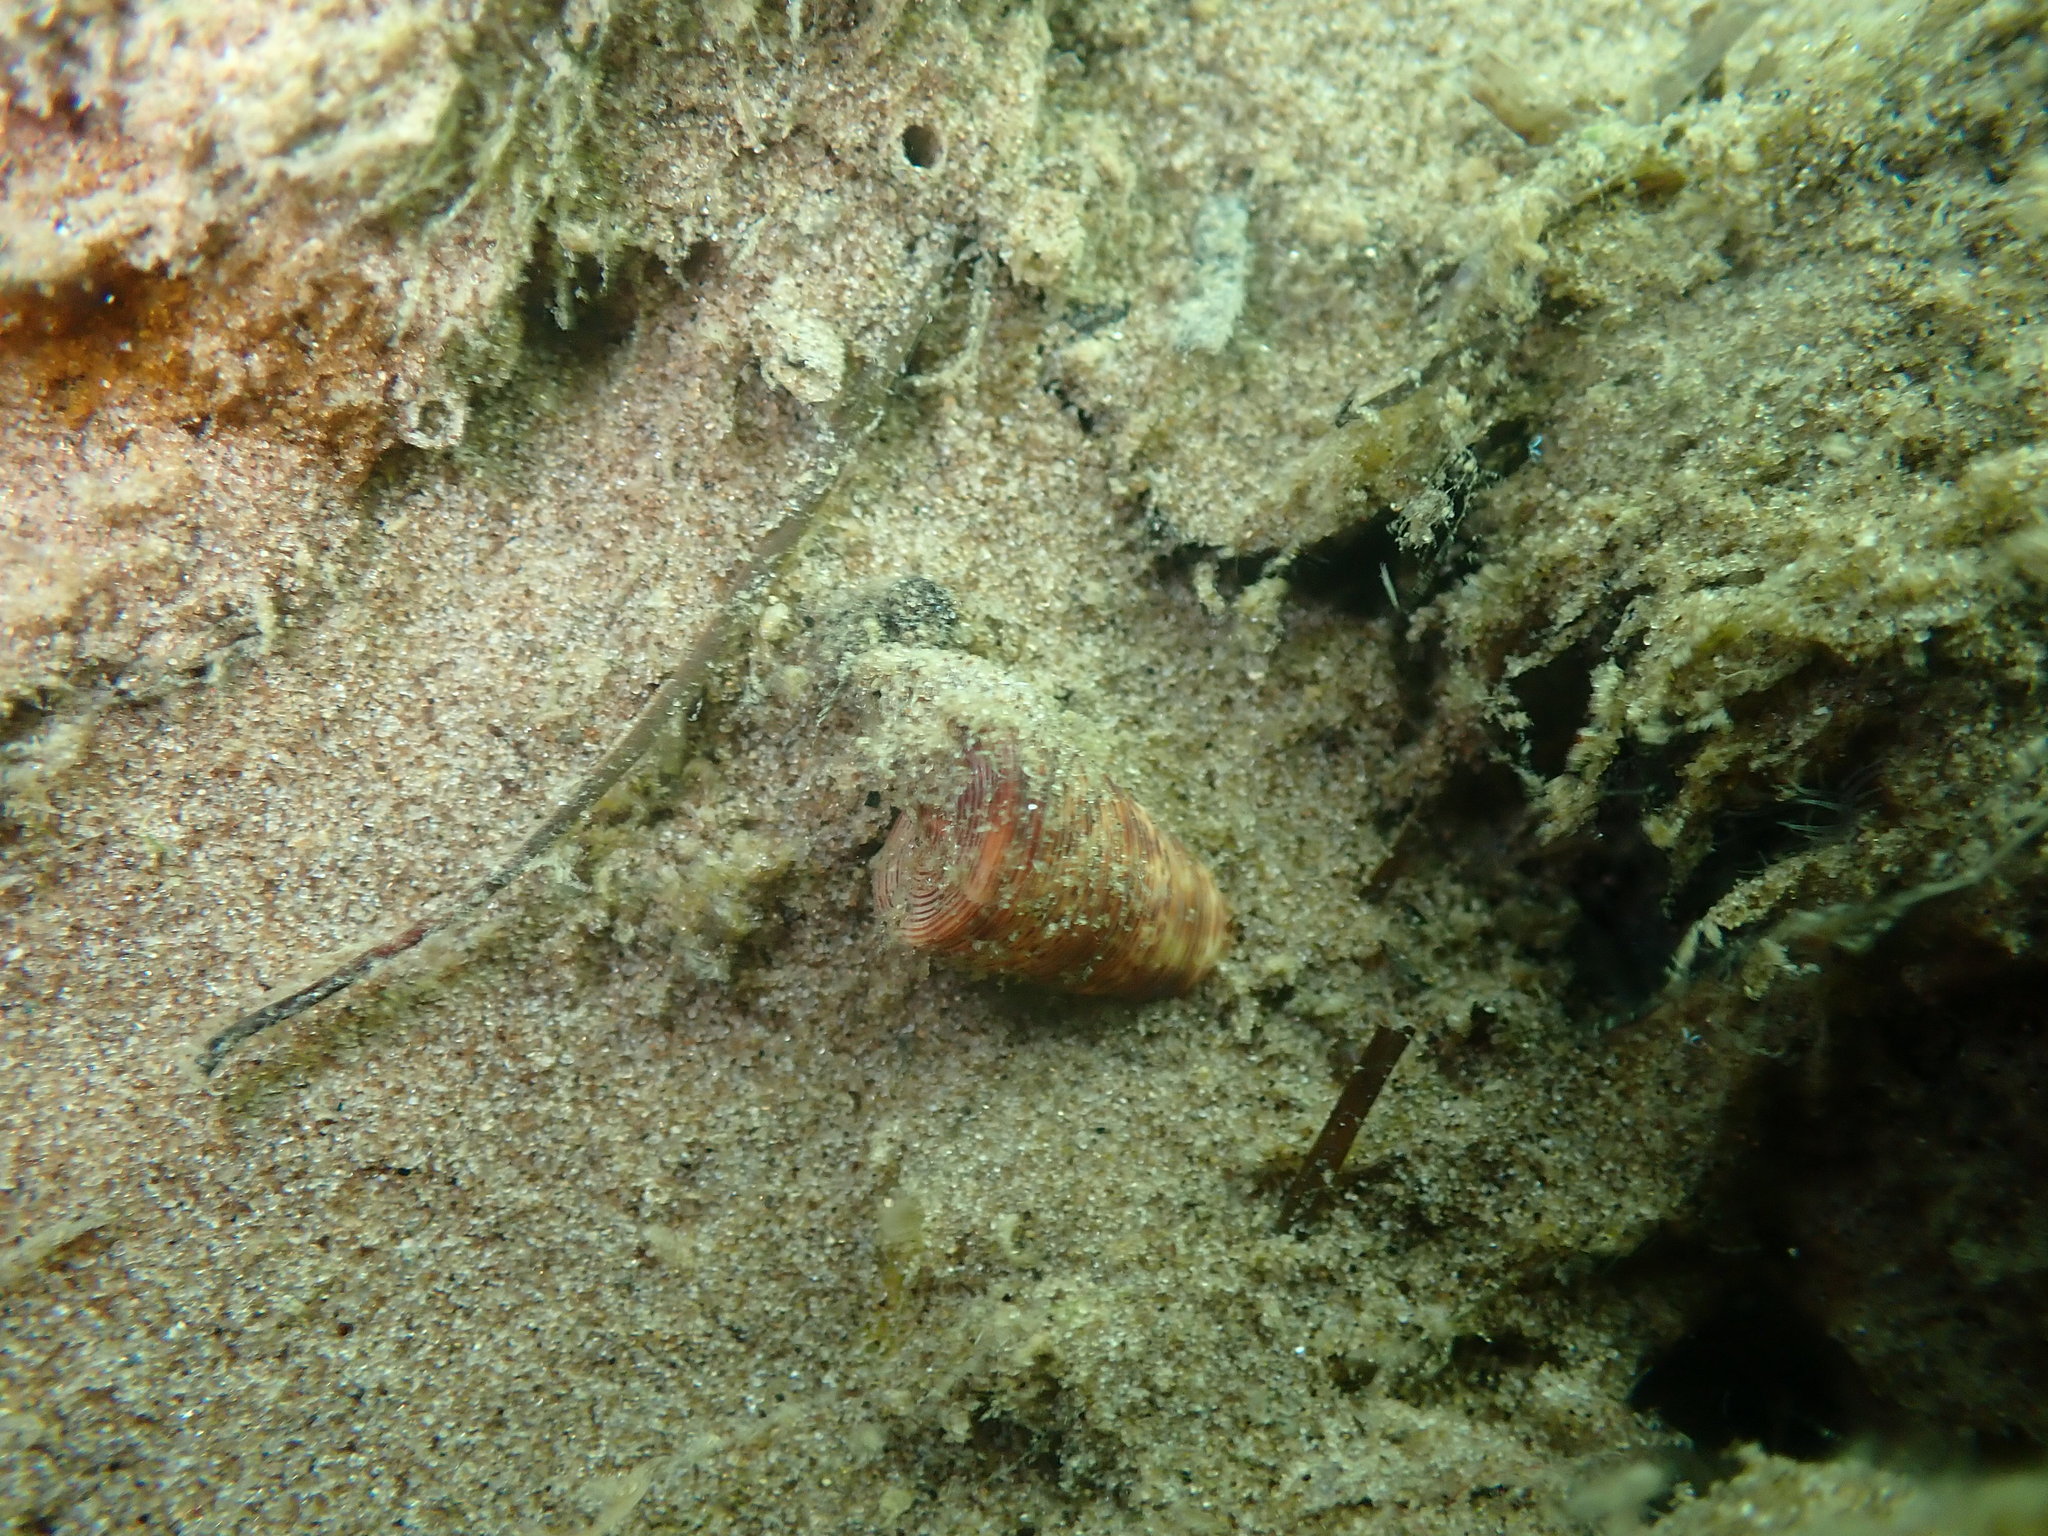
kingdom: Animalia
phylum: Mollusca
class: Gastropoda
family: Turritellidae
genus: Maoricolpus
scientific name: Maoricolpus roseus
